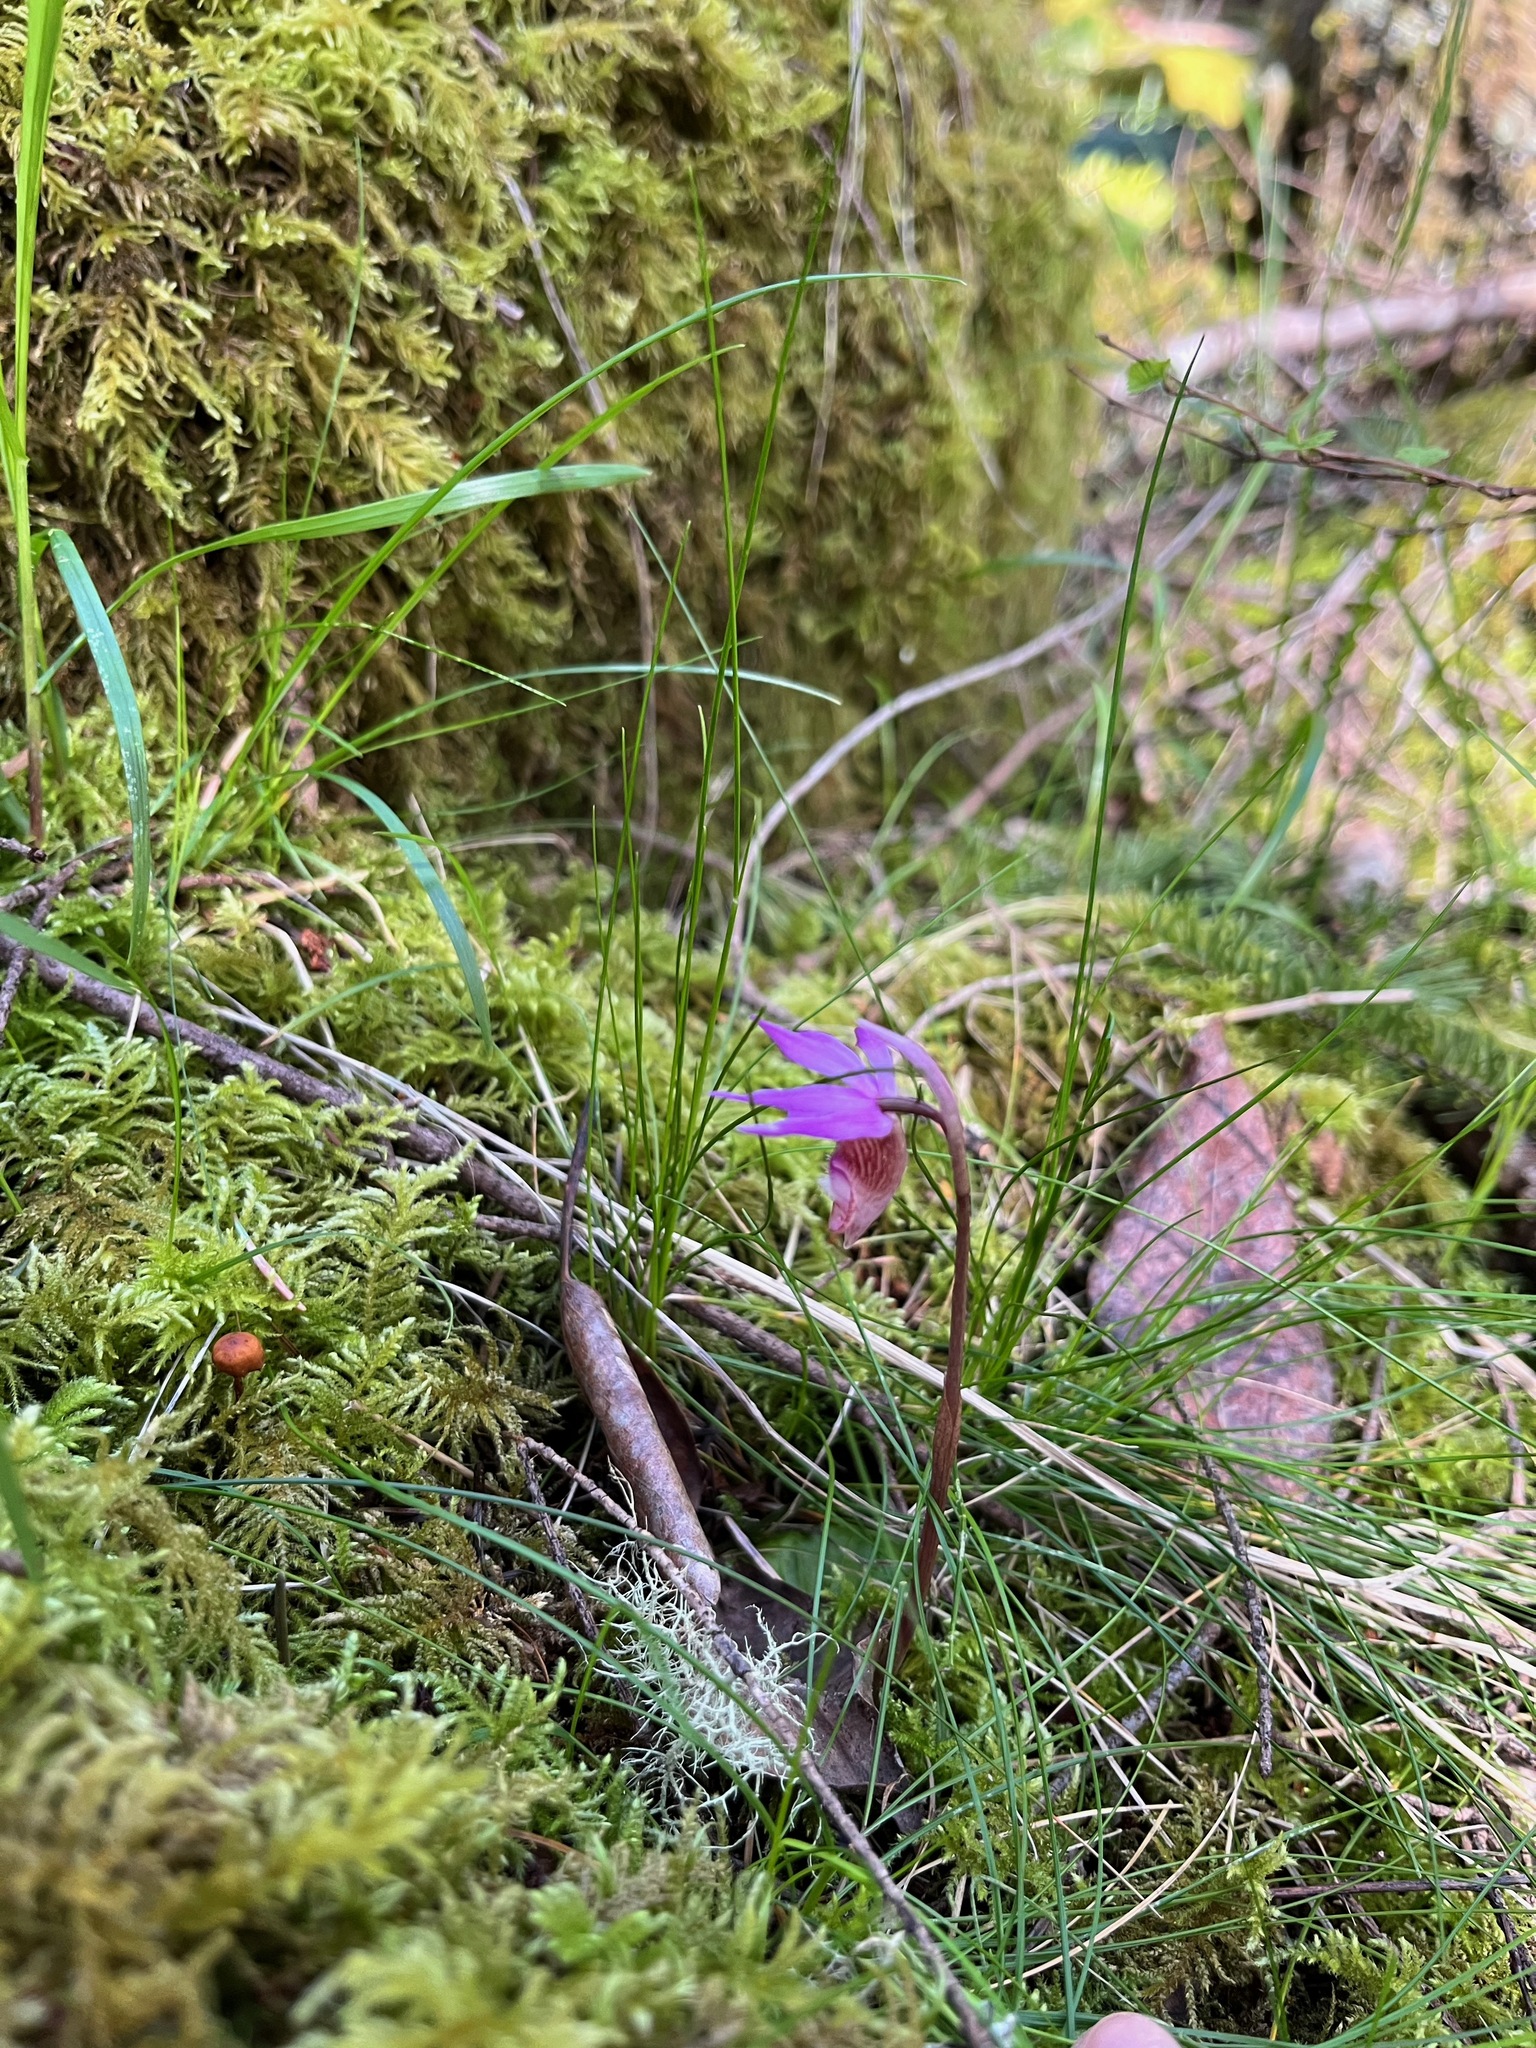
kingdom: Plantae
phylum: Tracheophyta
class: Liliopsida
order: Asparagales
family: Orchidaceae
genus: Calypso
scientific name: Calypso bulbosa
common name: Calypso
